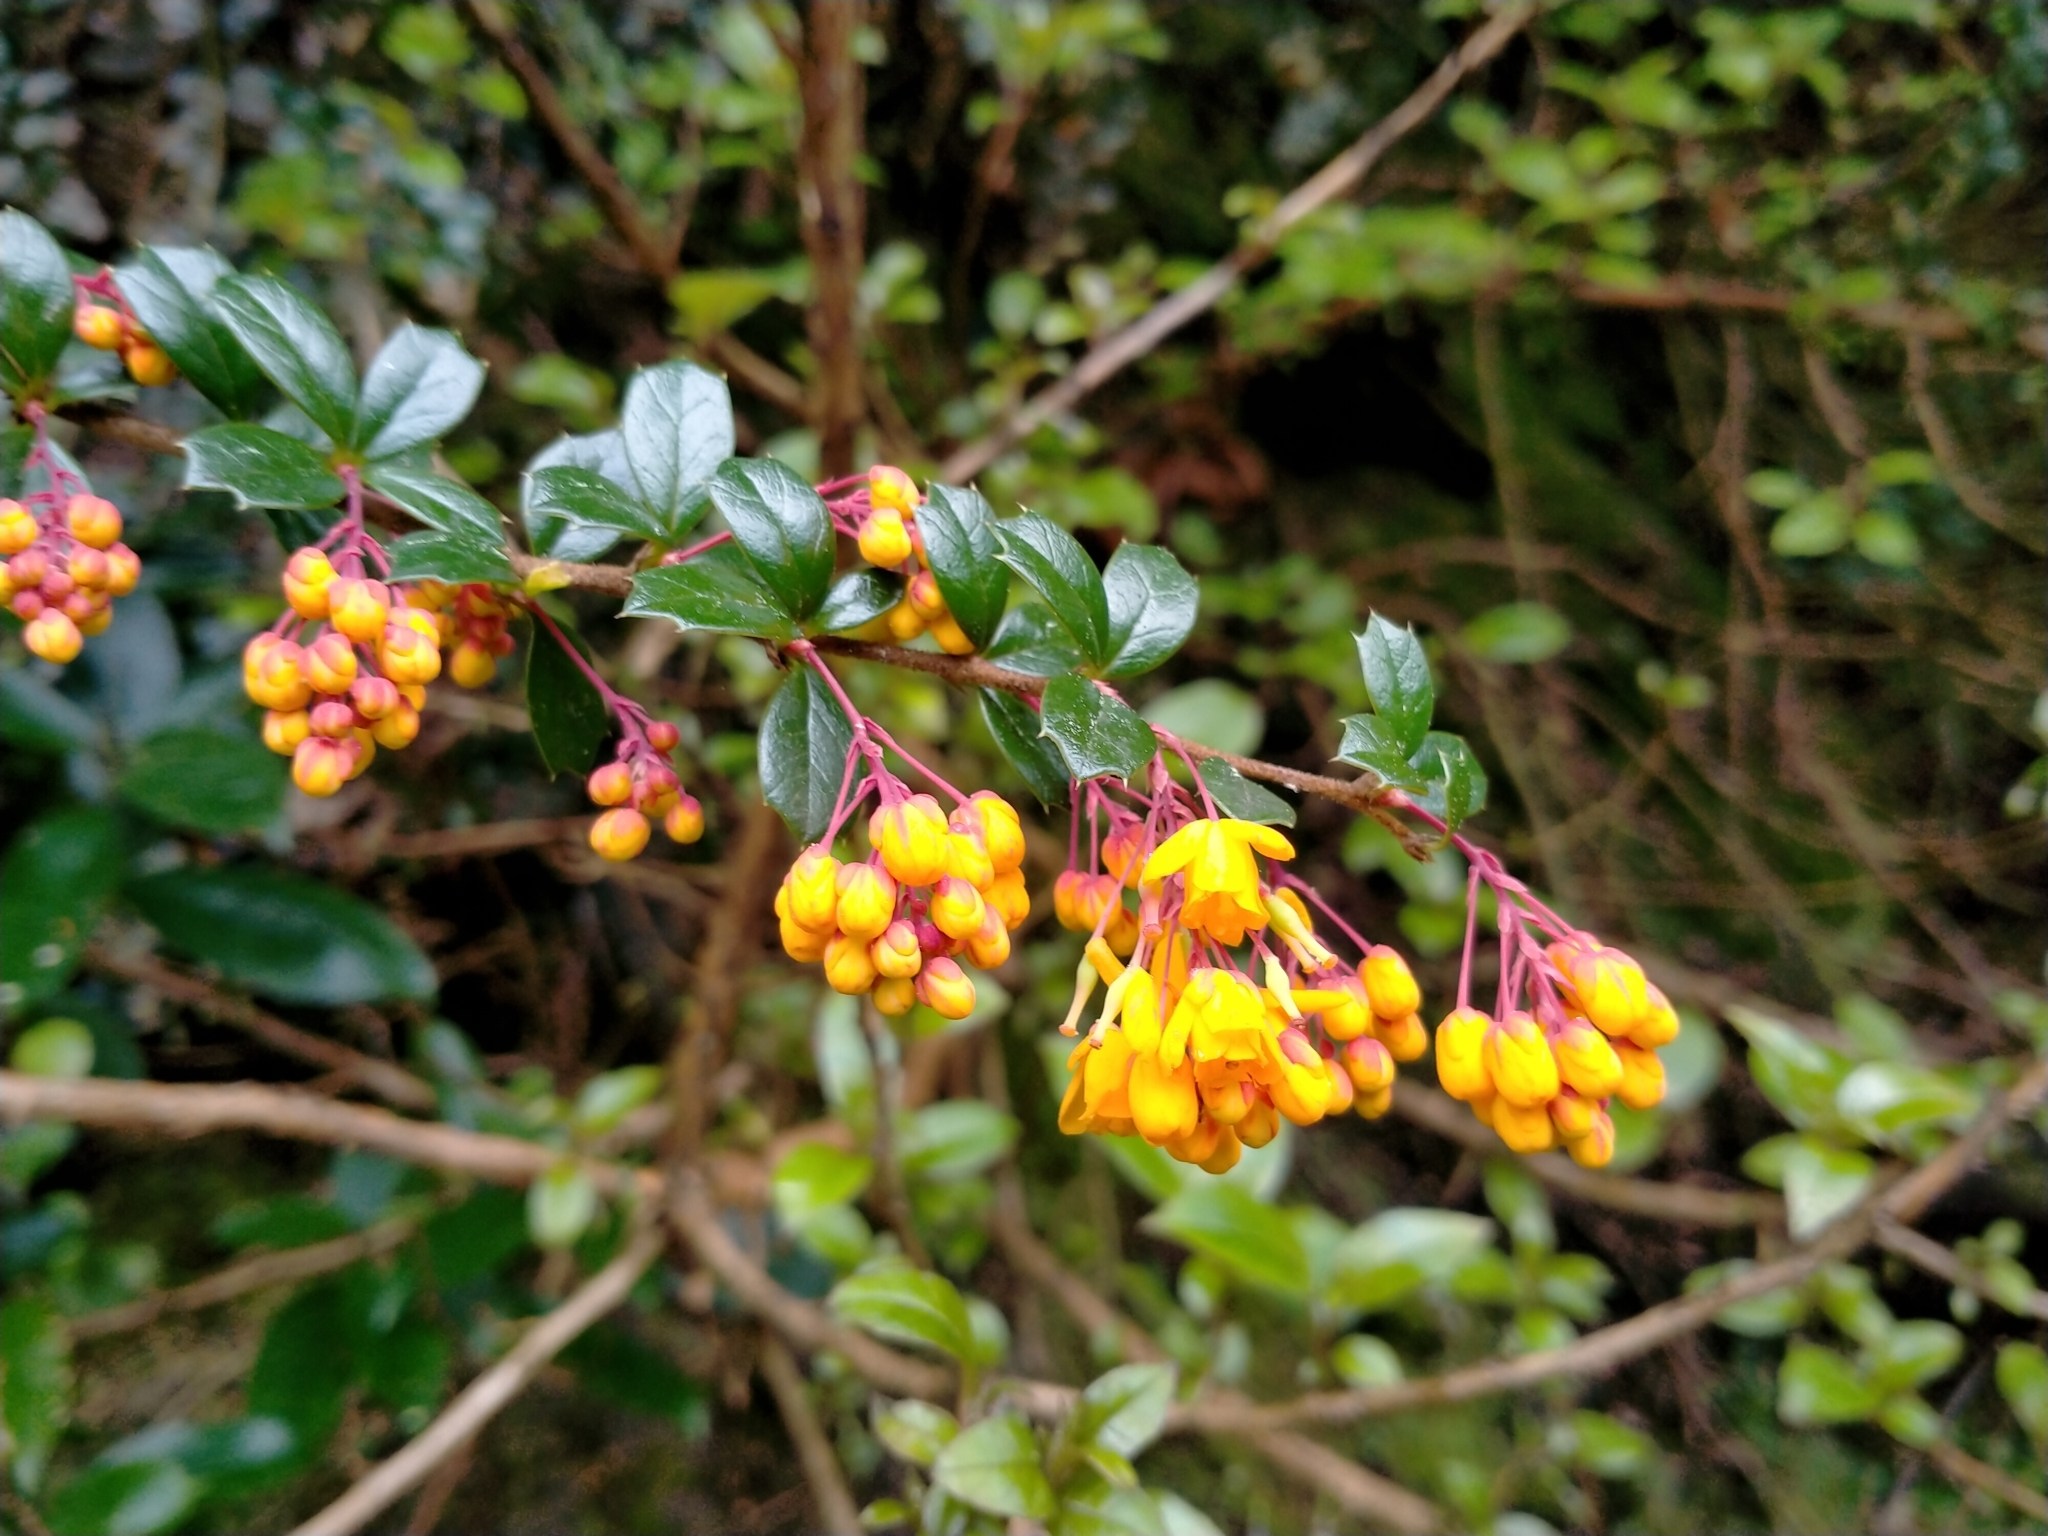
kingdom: Plantae
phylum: Tracheophyta
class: Magnoliopsida
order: Ranunculales
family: Berberidaceae
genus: Berberis
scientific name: Berberis darwinii
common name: Darwin's barberry
